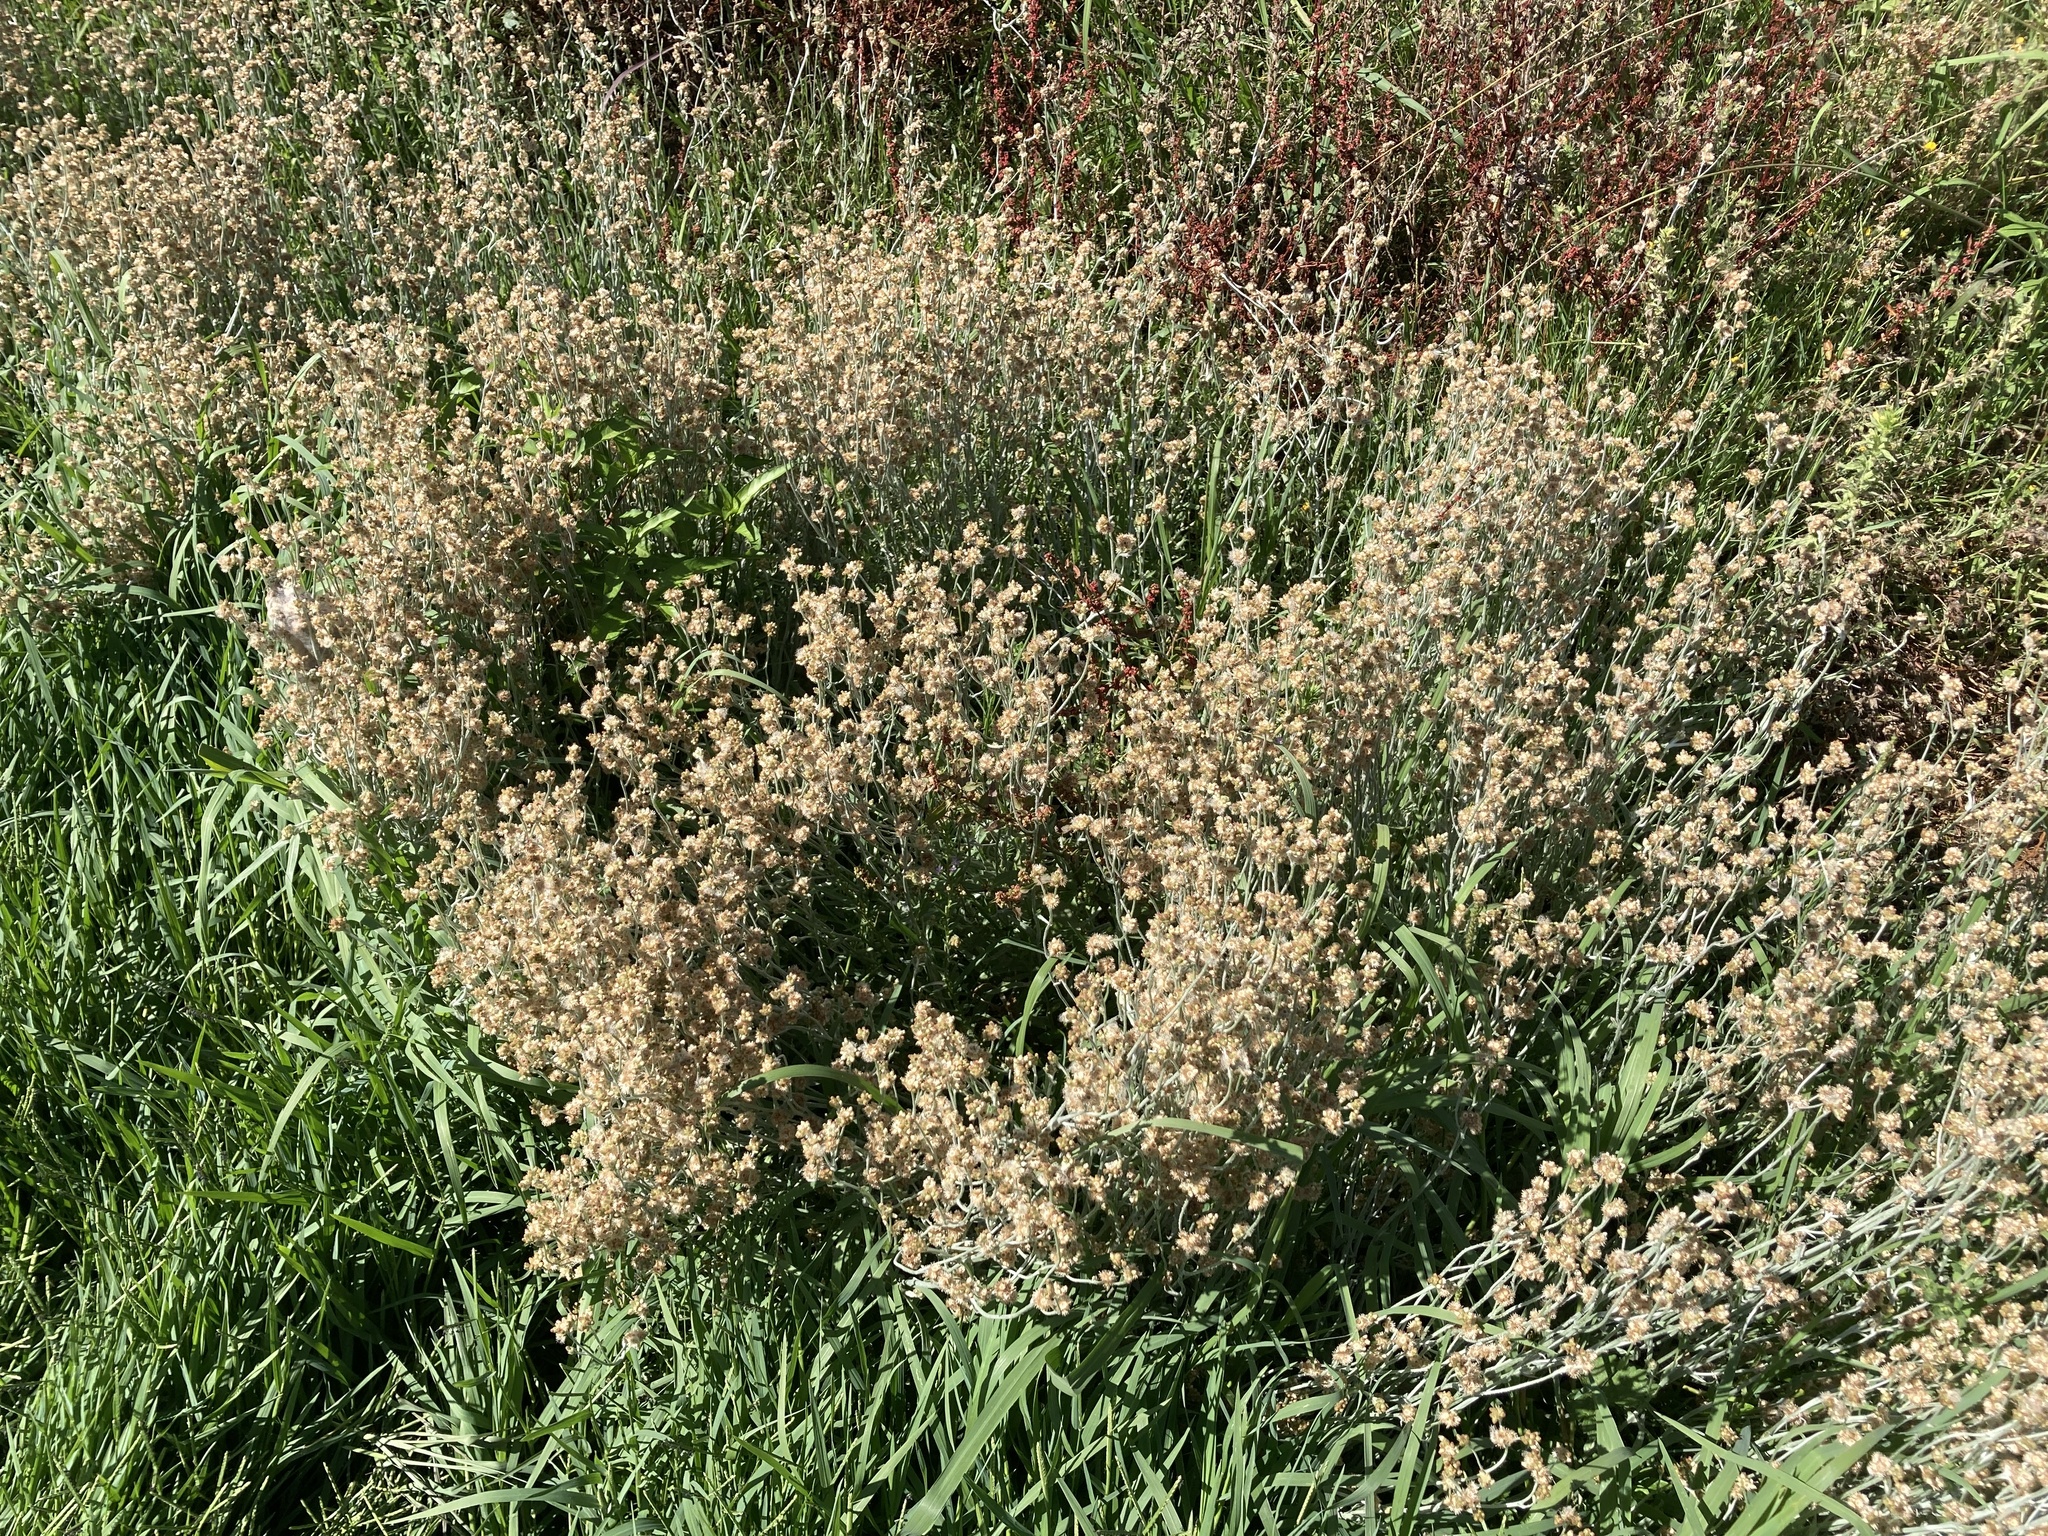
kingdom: Plantae
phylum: Tracheophyta
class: Magnoliopsida
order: Asterales
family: Asteraceae
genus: Helichrysum
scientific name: Helichrysum luteoalbum
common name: Daisy
